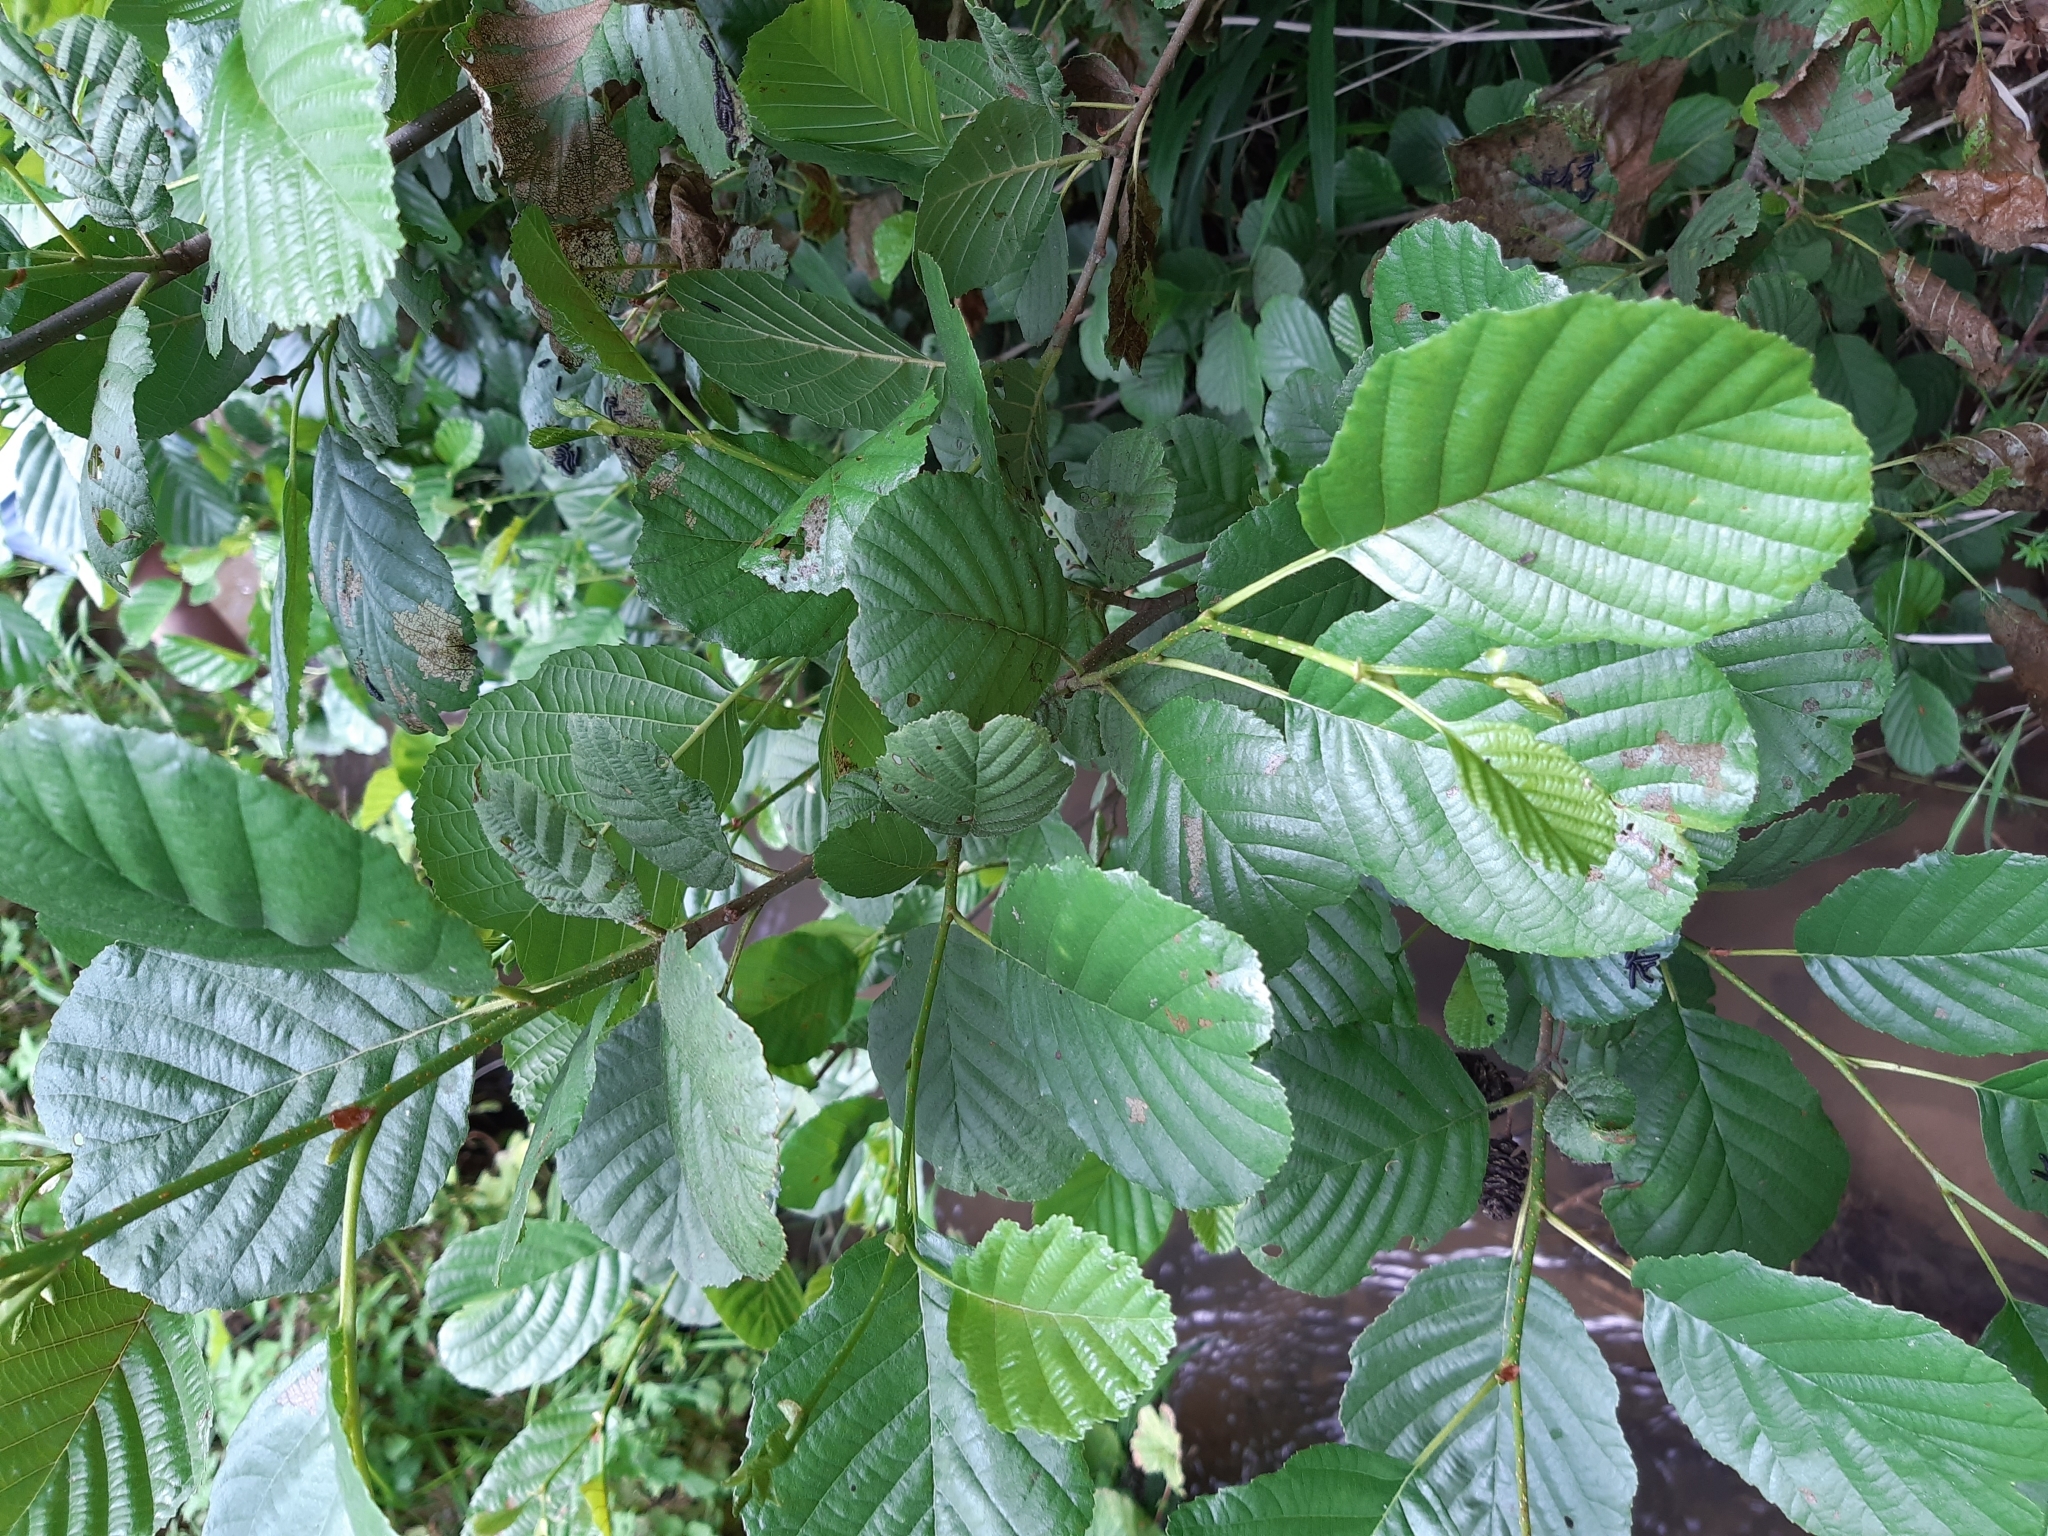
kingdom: Plantae
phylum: Tracheophyta
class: Magnoliopsida
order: Fagales
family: Betulaceae
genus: Alnus
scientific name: Alnus glutinosa
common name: Black alder
